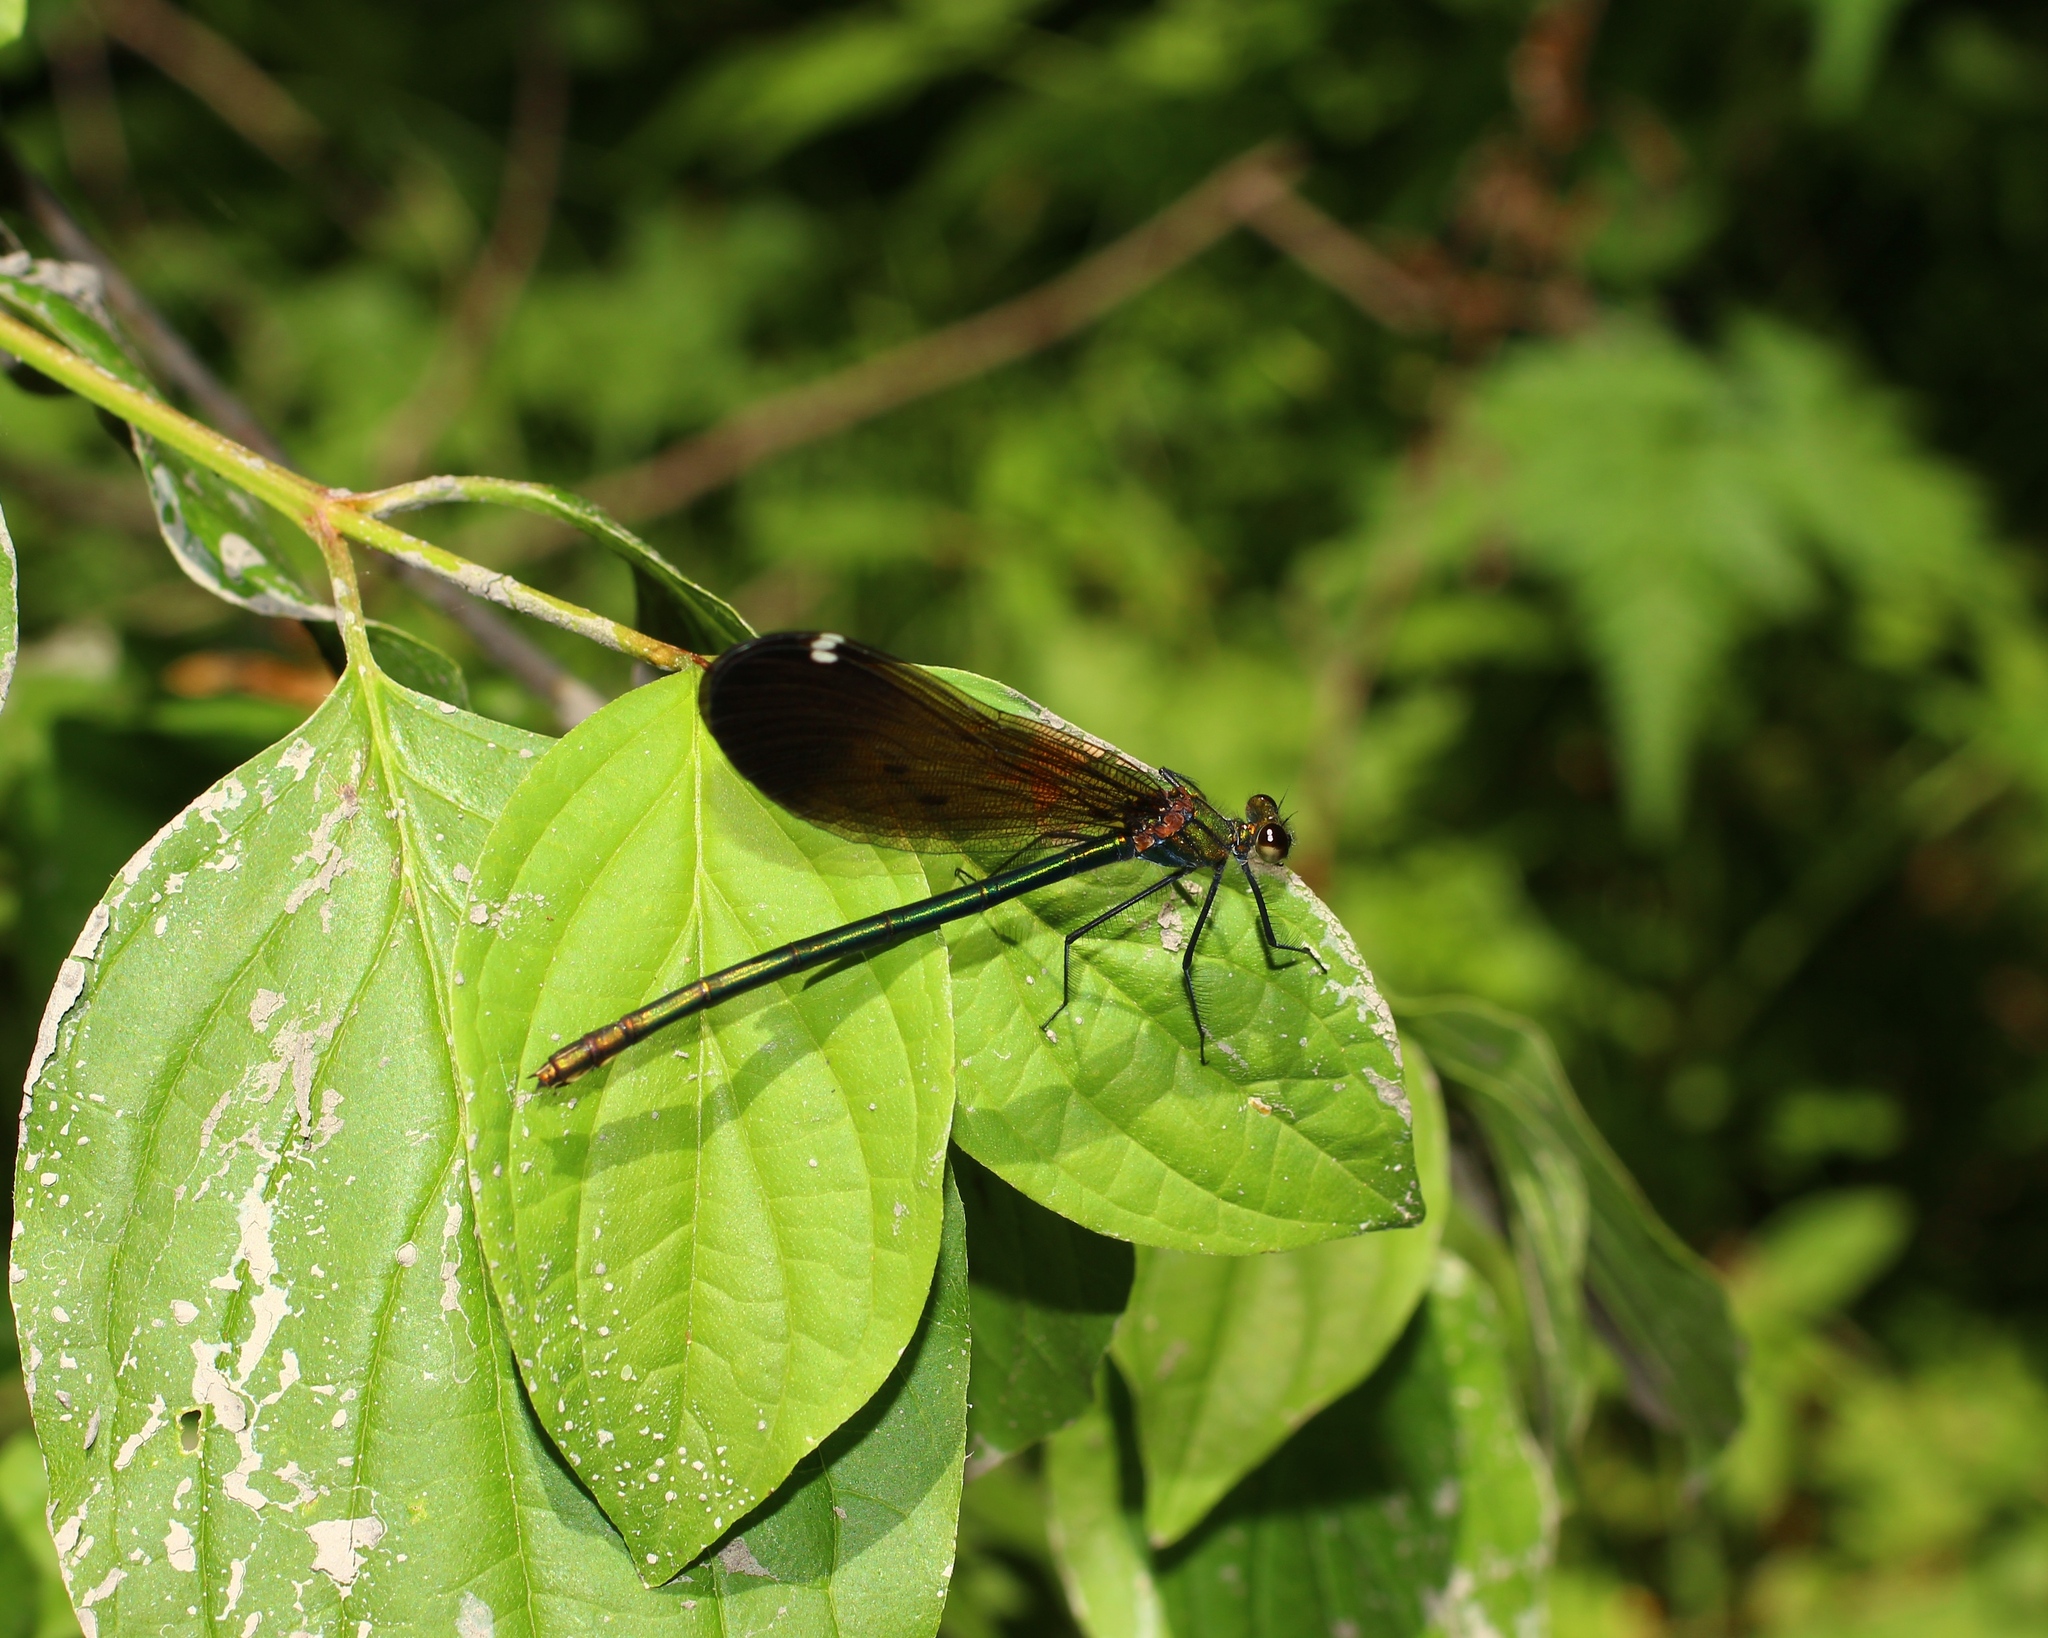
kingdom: Animalia
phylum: Arthropoda
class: Insecta
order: Odonata
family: Calopterygidae
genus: Calopteryx
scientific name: Calopteryx virgo
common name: Beautiful demoiselle
